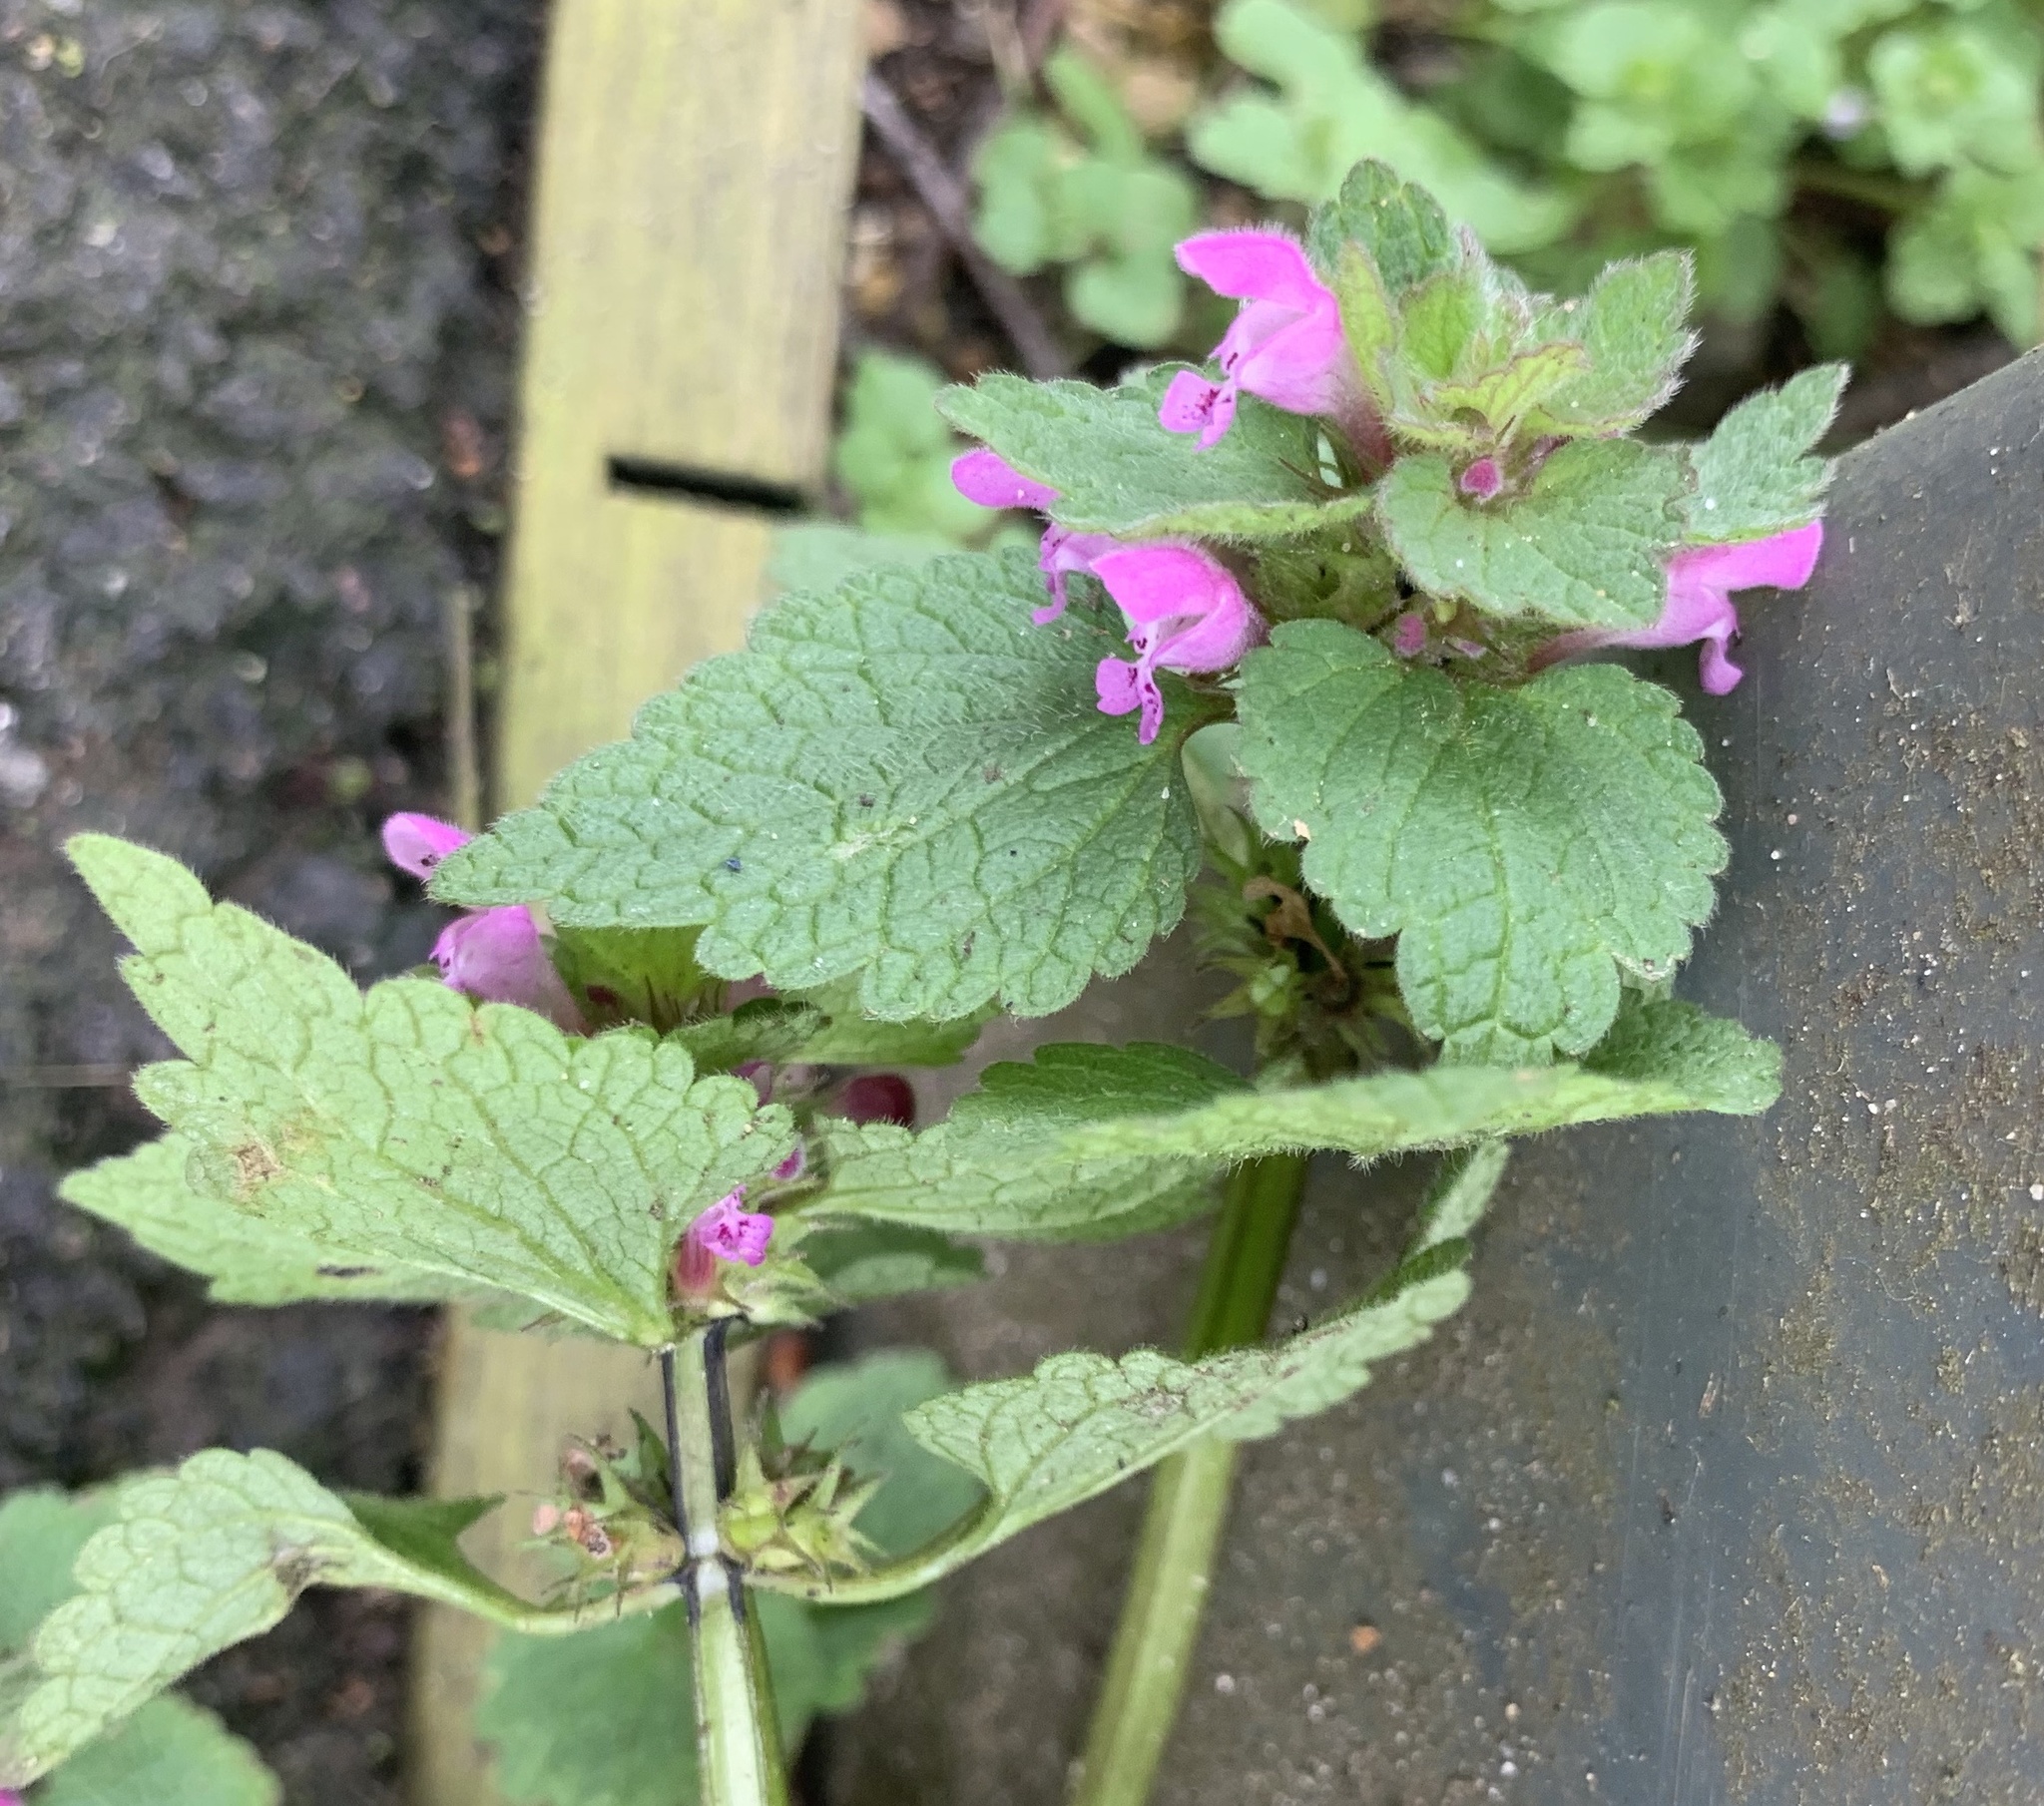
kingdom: Plantae
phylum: Tracheophyta
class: Magnoliopsida
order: Lamiales
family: Lamiaceae
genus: Lamium
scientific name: Lamium purpureum
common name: Red dead-nettle
